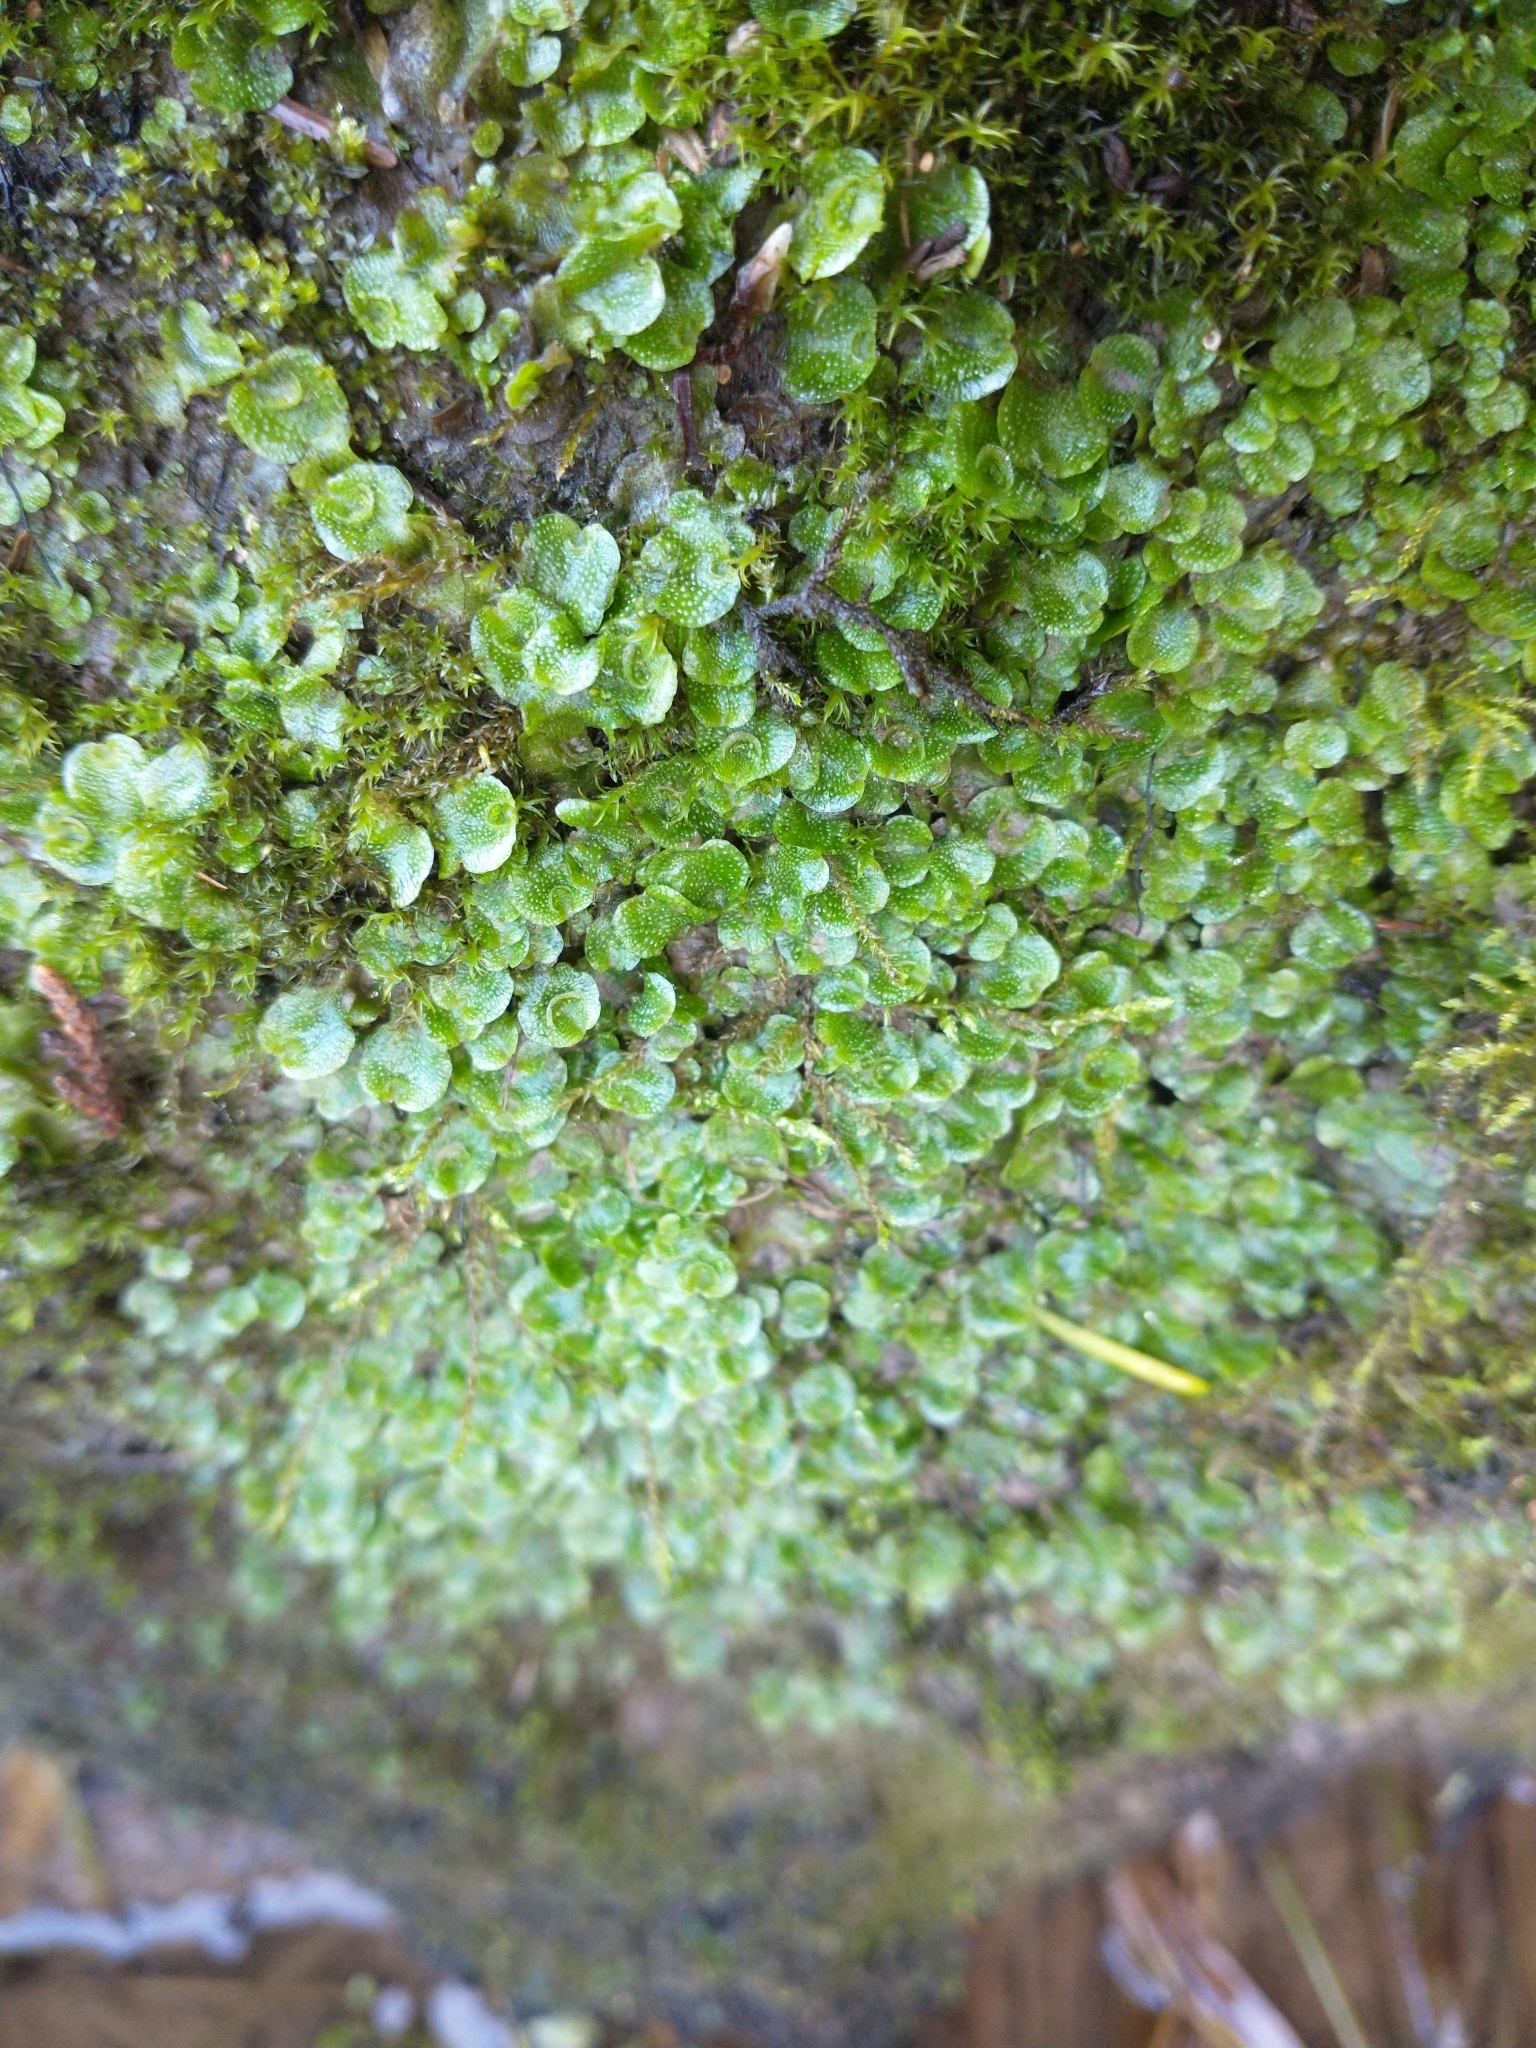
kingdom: Plantae
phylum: Marchantiophyta
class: Marchantiopsida
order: Lunulariales
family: Lunulariaceae
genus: Lunularia
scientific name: Lunularia cruciata
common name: Crescent-cup liverwort
